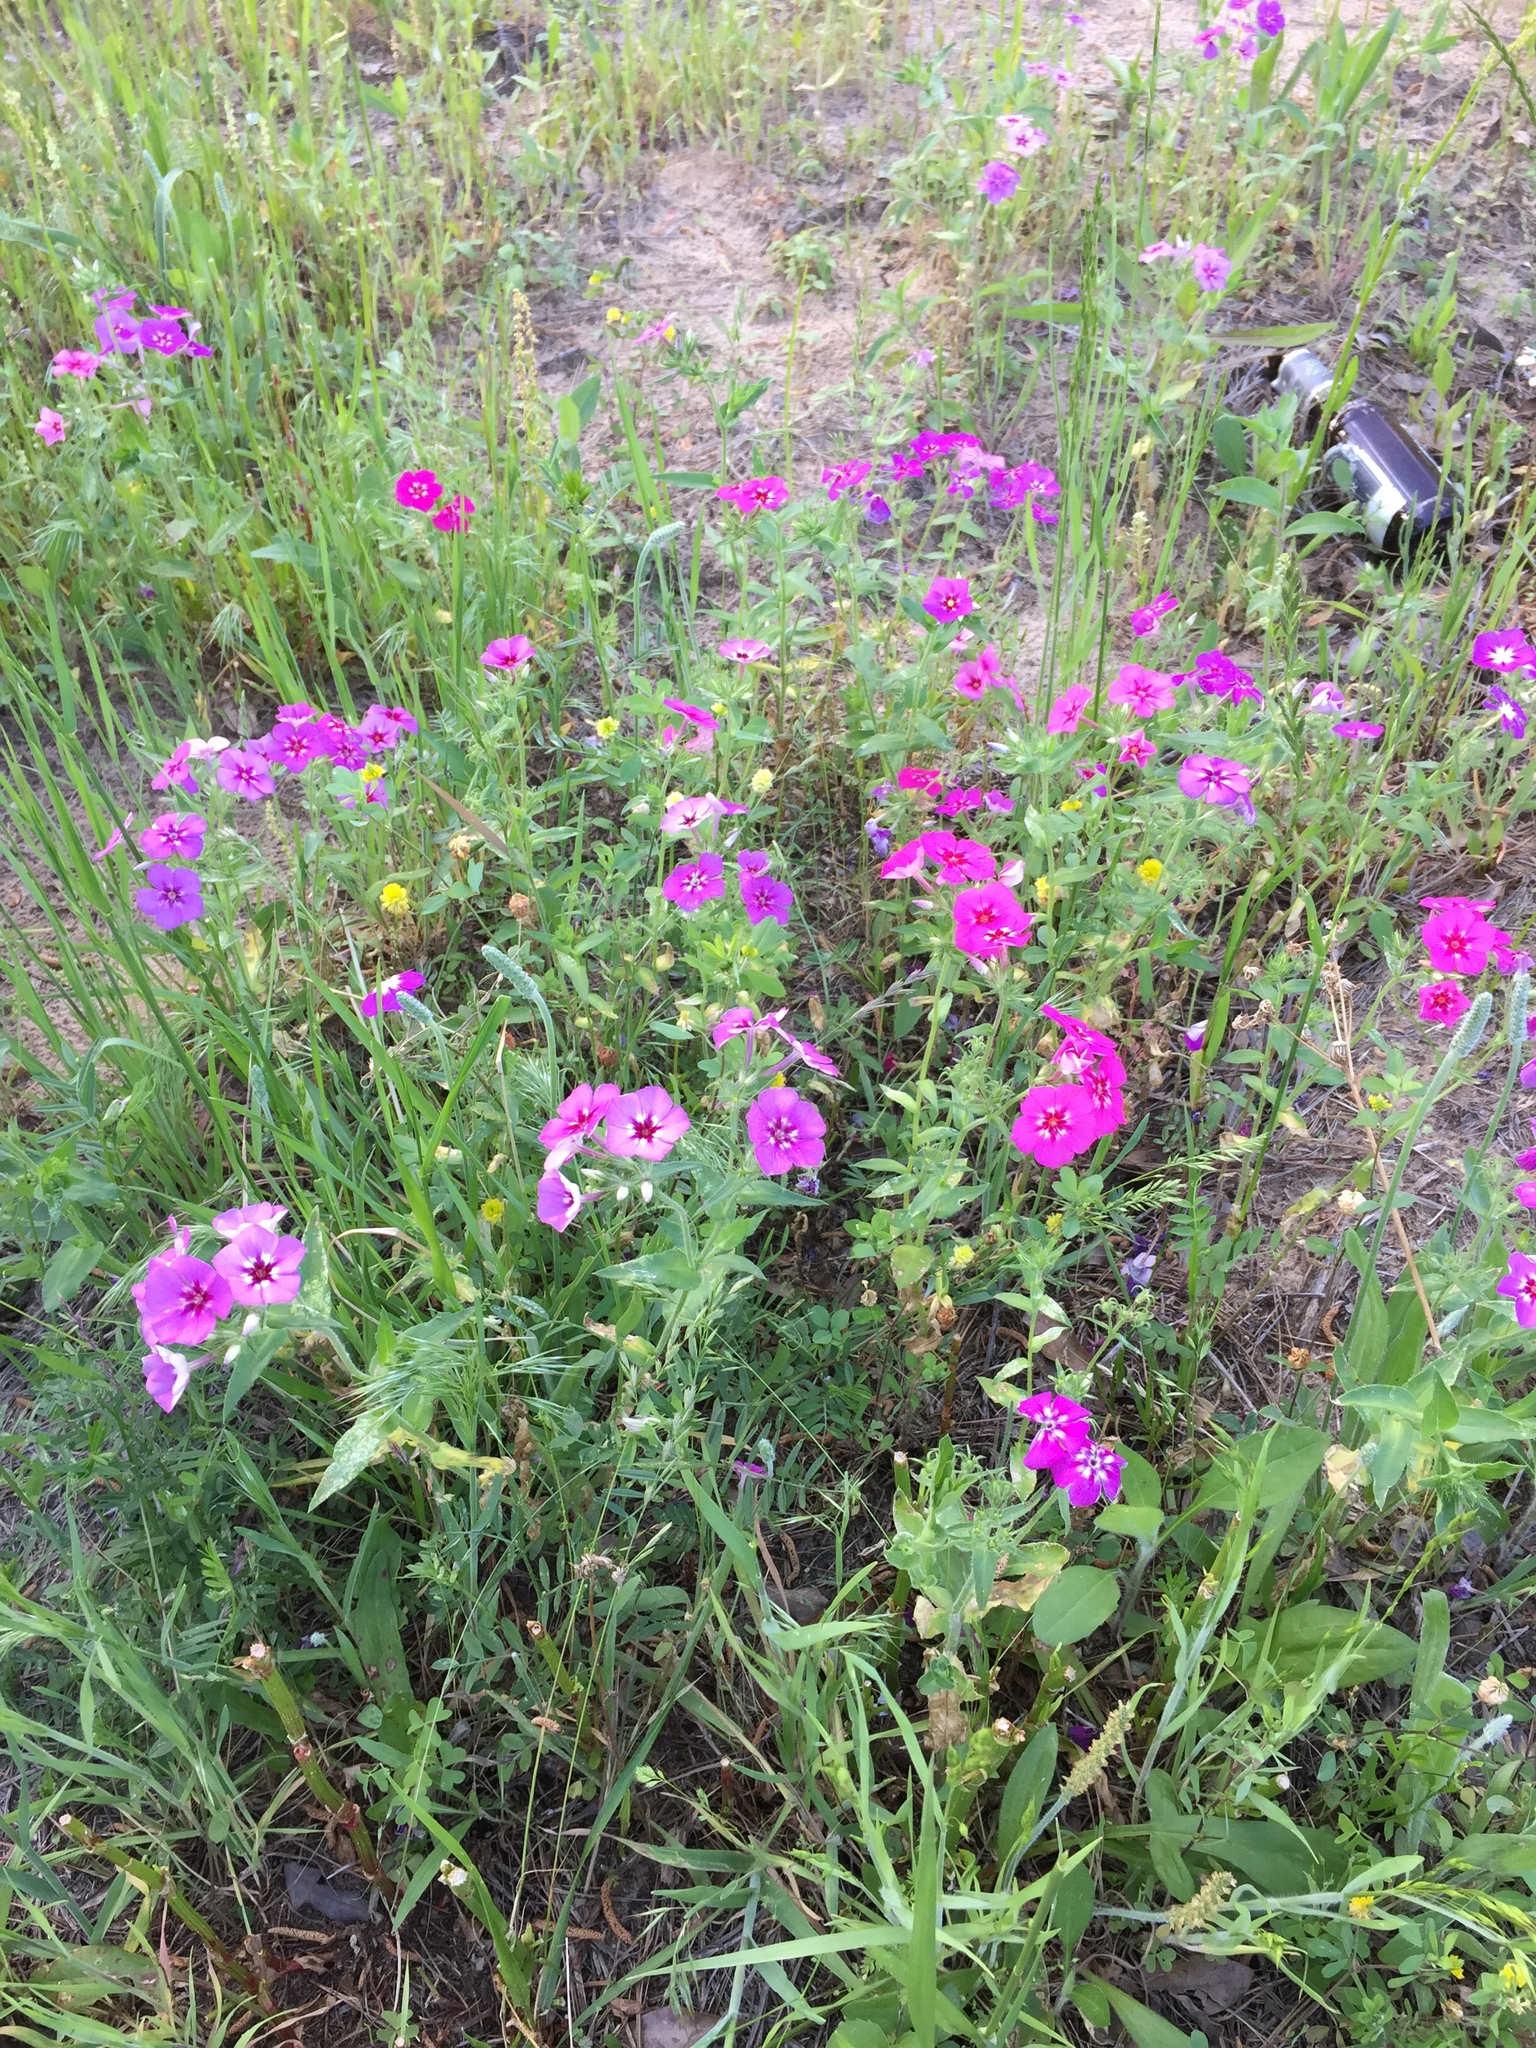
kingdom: Plantae
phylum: Tracheophyta
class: Magnoliopsida
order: Ericales
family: Polemoniaceae
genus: Phlox
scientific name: Phlox drummondii
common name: Drummond's phlox
